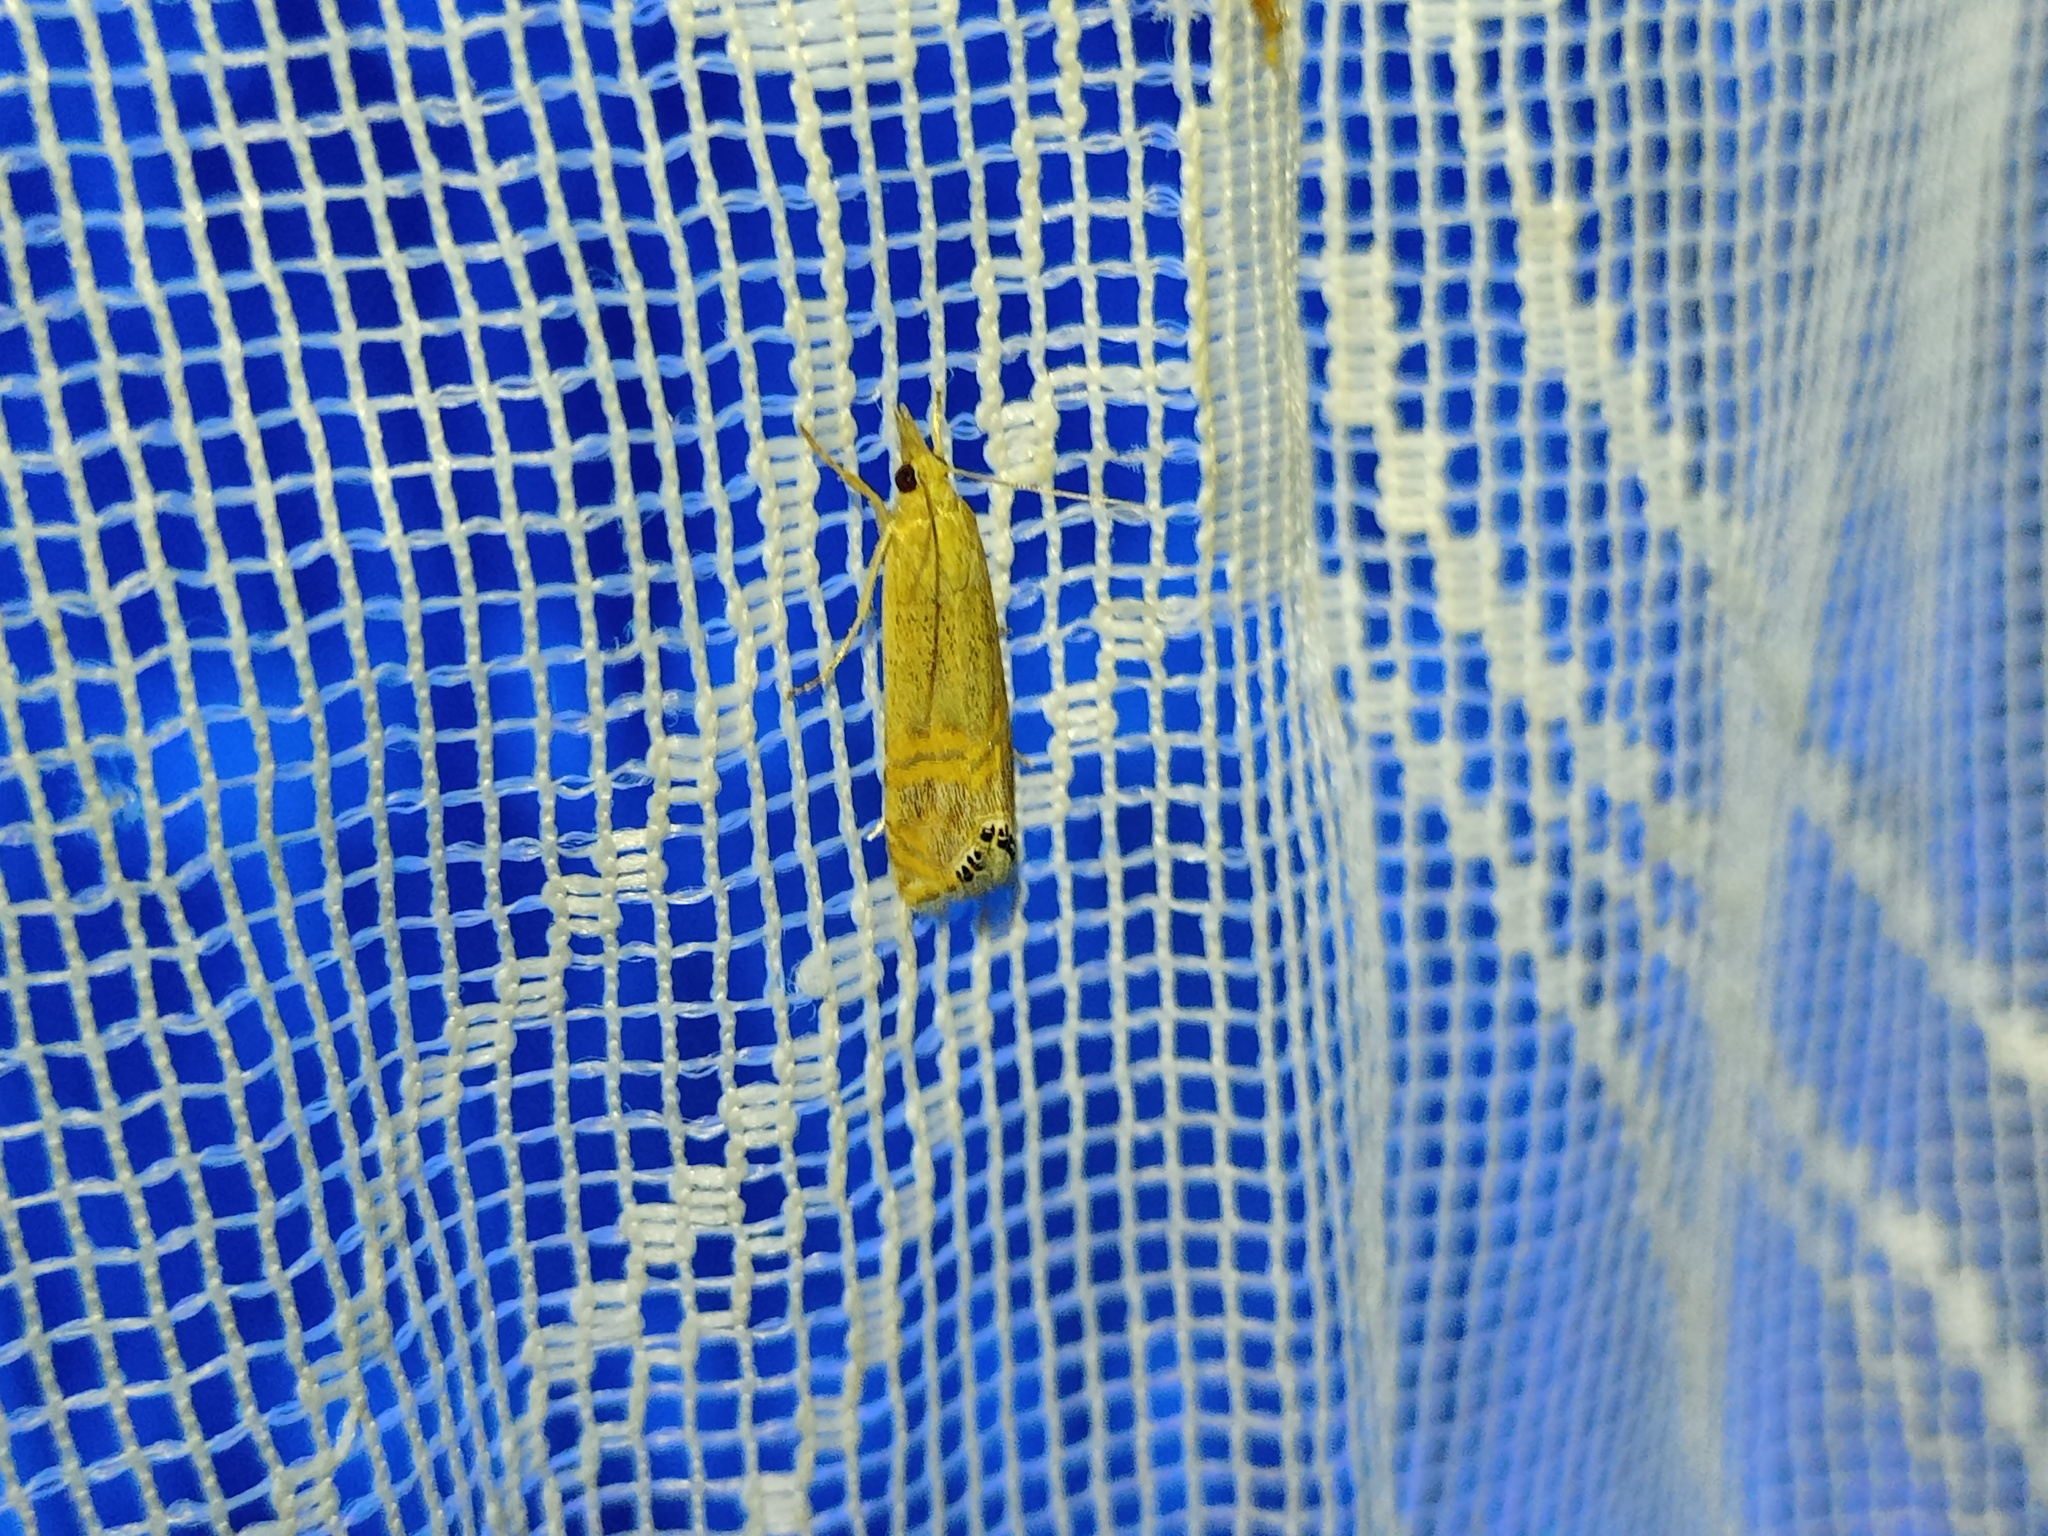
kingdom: Animalia
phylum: Arthropoda
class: Insecta
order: Lepidoptera
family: Crambidae
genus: Euchromius
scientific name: Euchromius ocellea
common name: Necklace veneer moth
